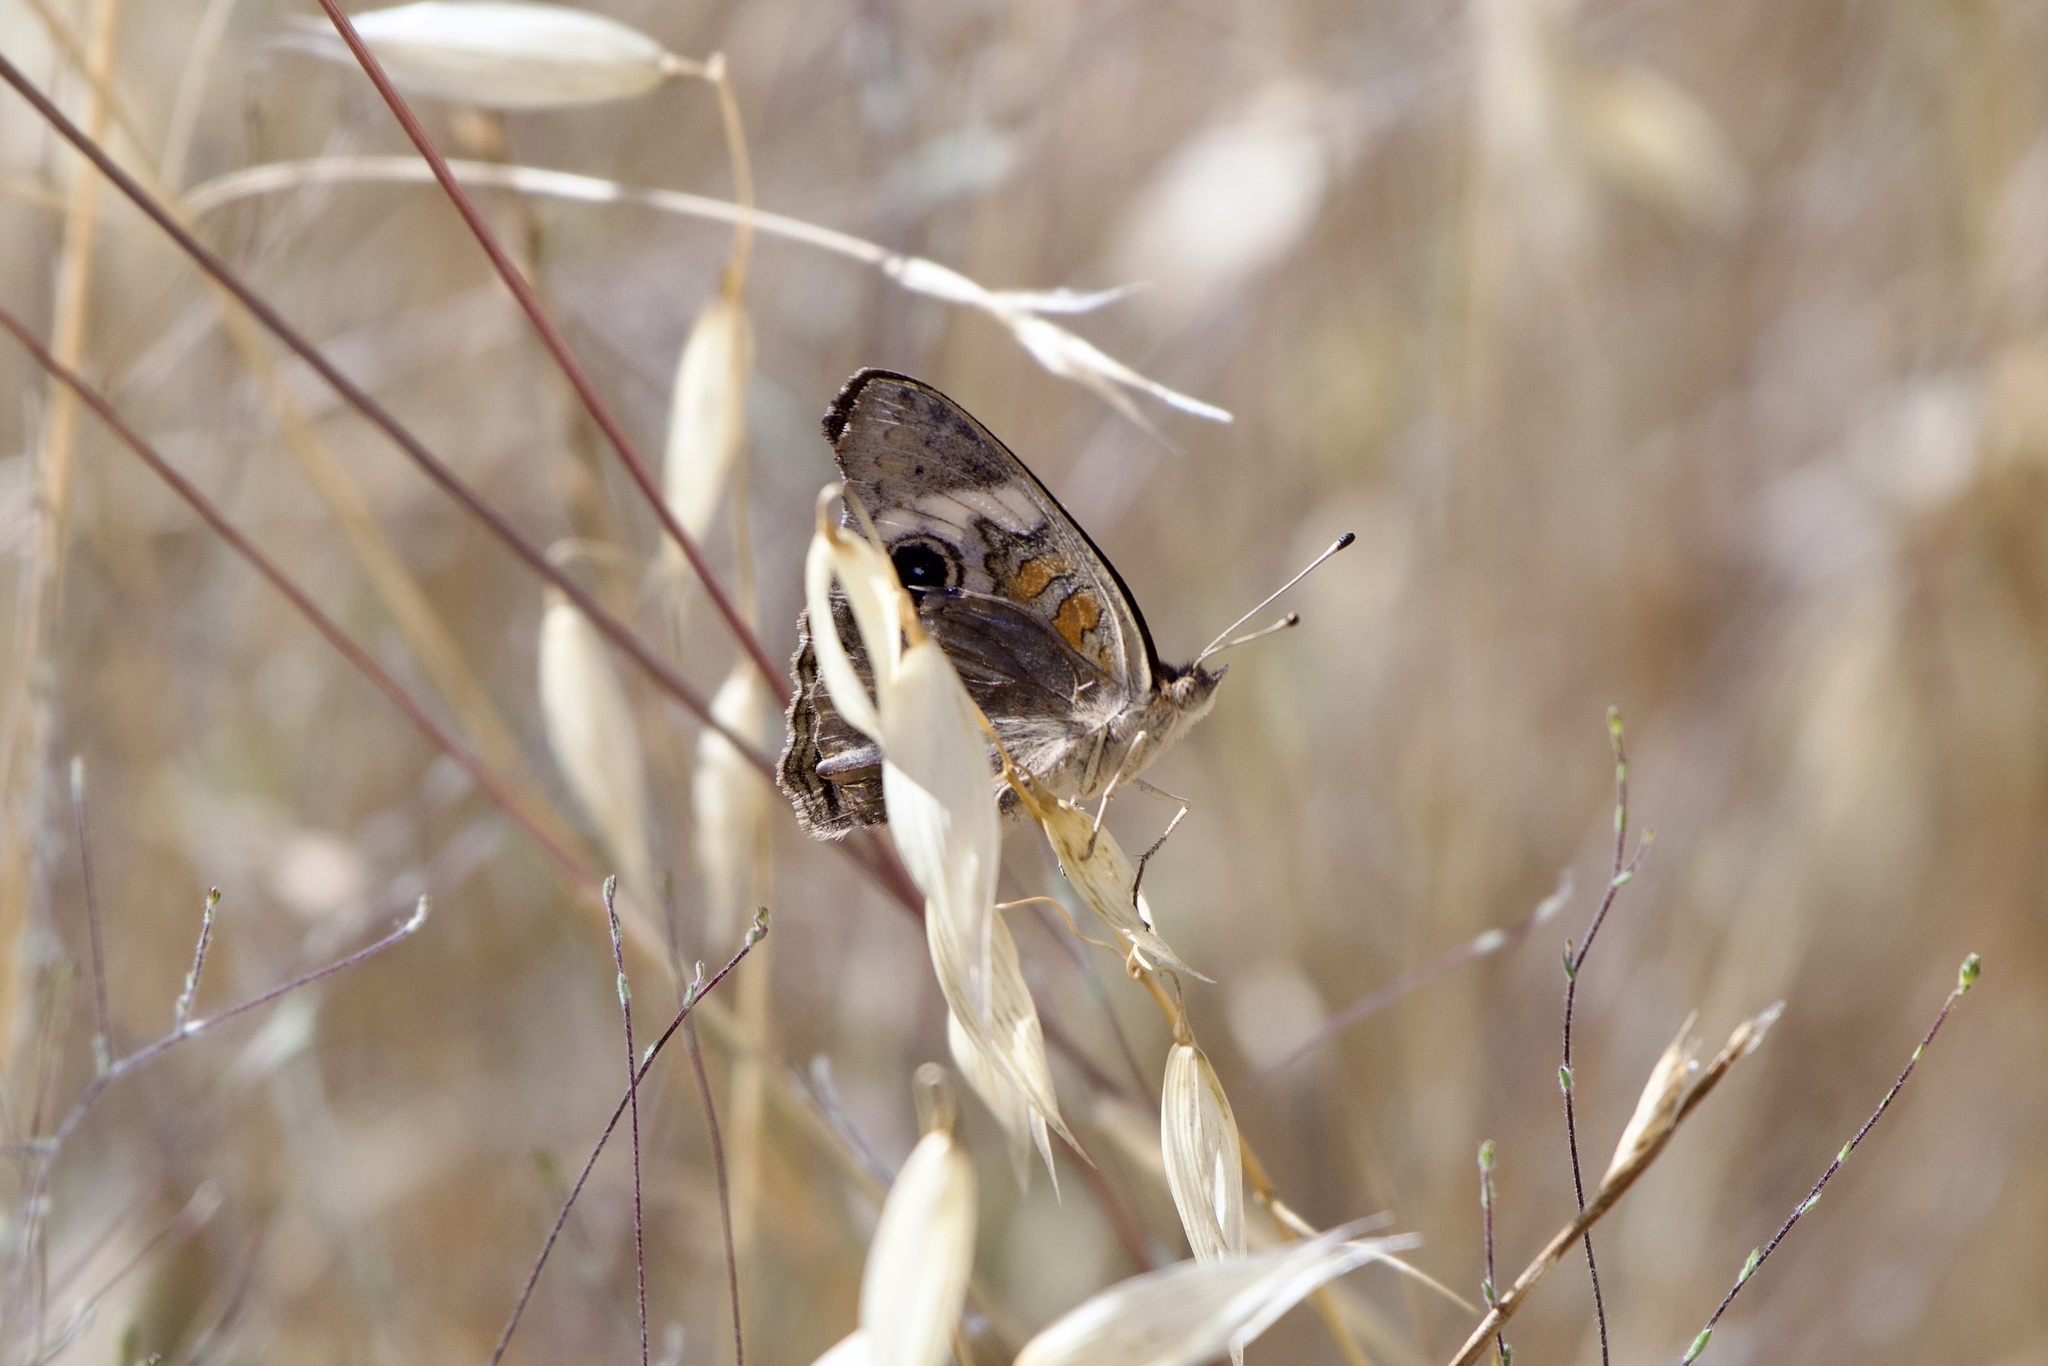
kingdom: Animalia
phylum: Arthropoda
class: Insecta
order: Lepidoptera
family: Nymphalidae
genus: Junonia
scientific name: Junonia grisea
